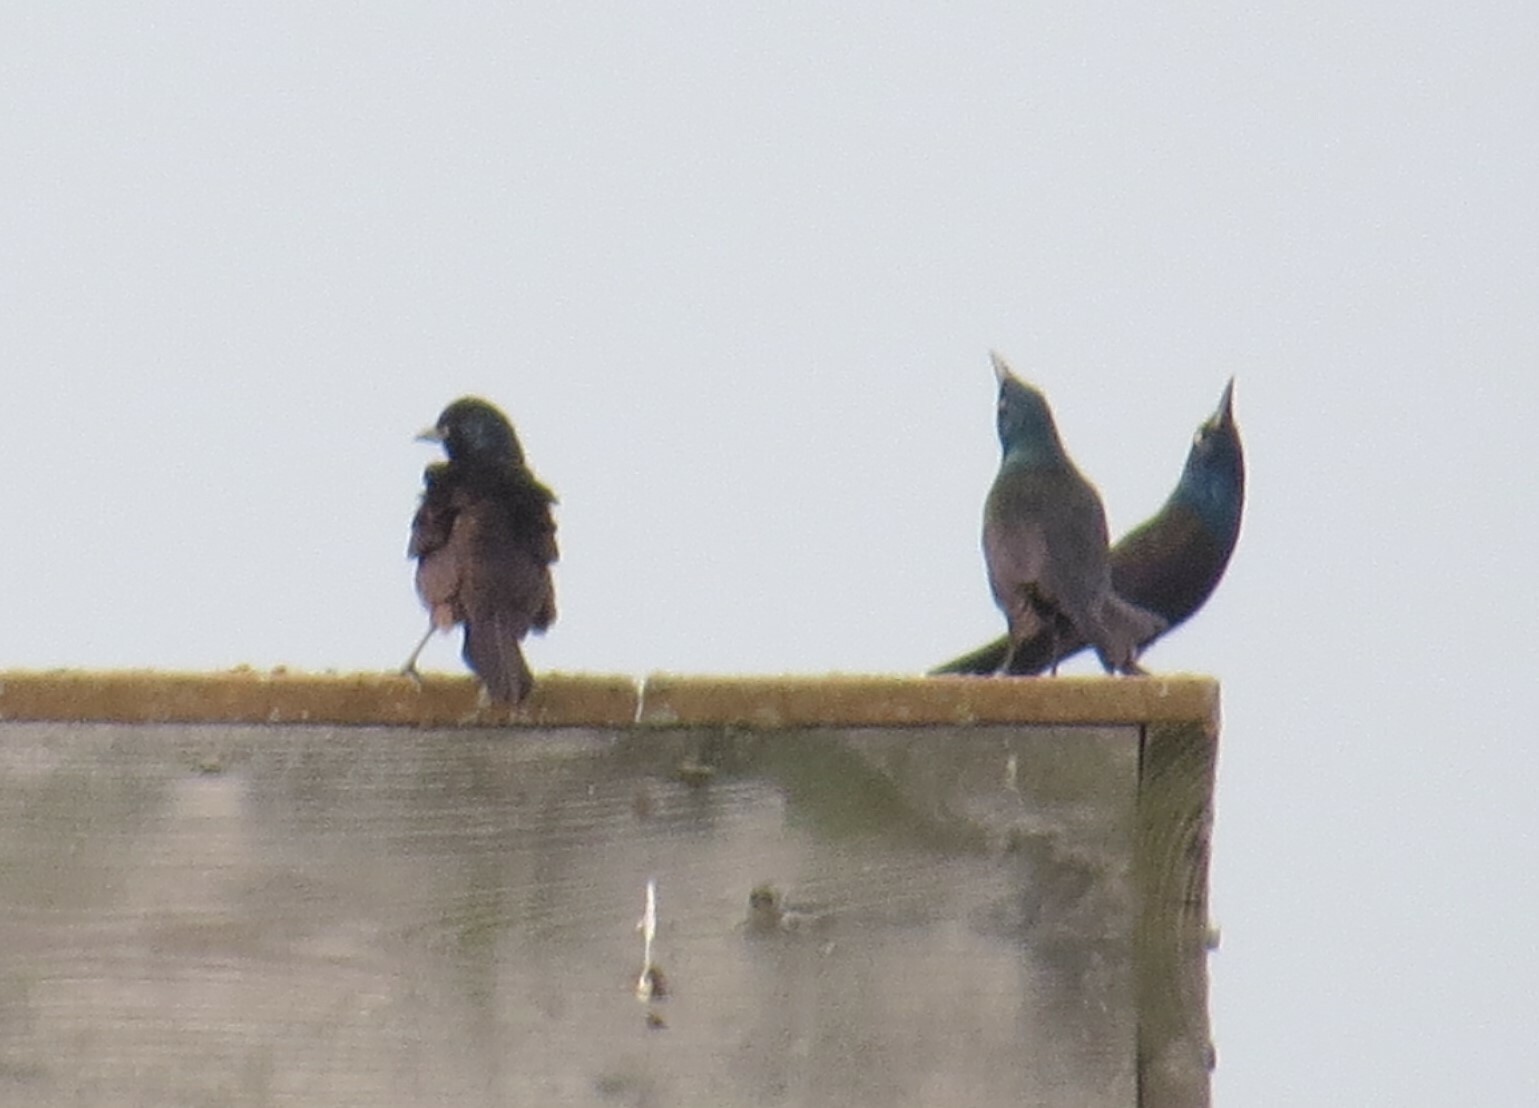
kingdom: Animalia
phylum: Chordata
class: Aves
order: Passeriformes
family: Icteridae
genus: Quiscalus
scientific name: Quiscalus quiscula
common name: Common grackle
